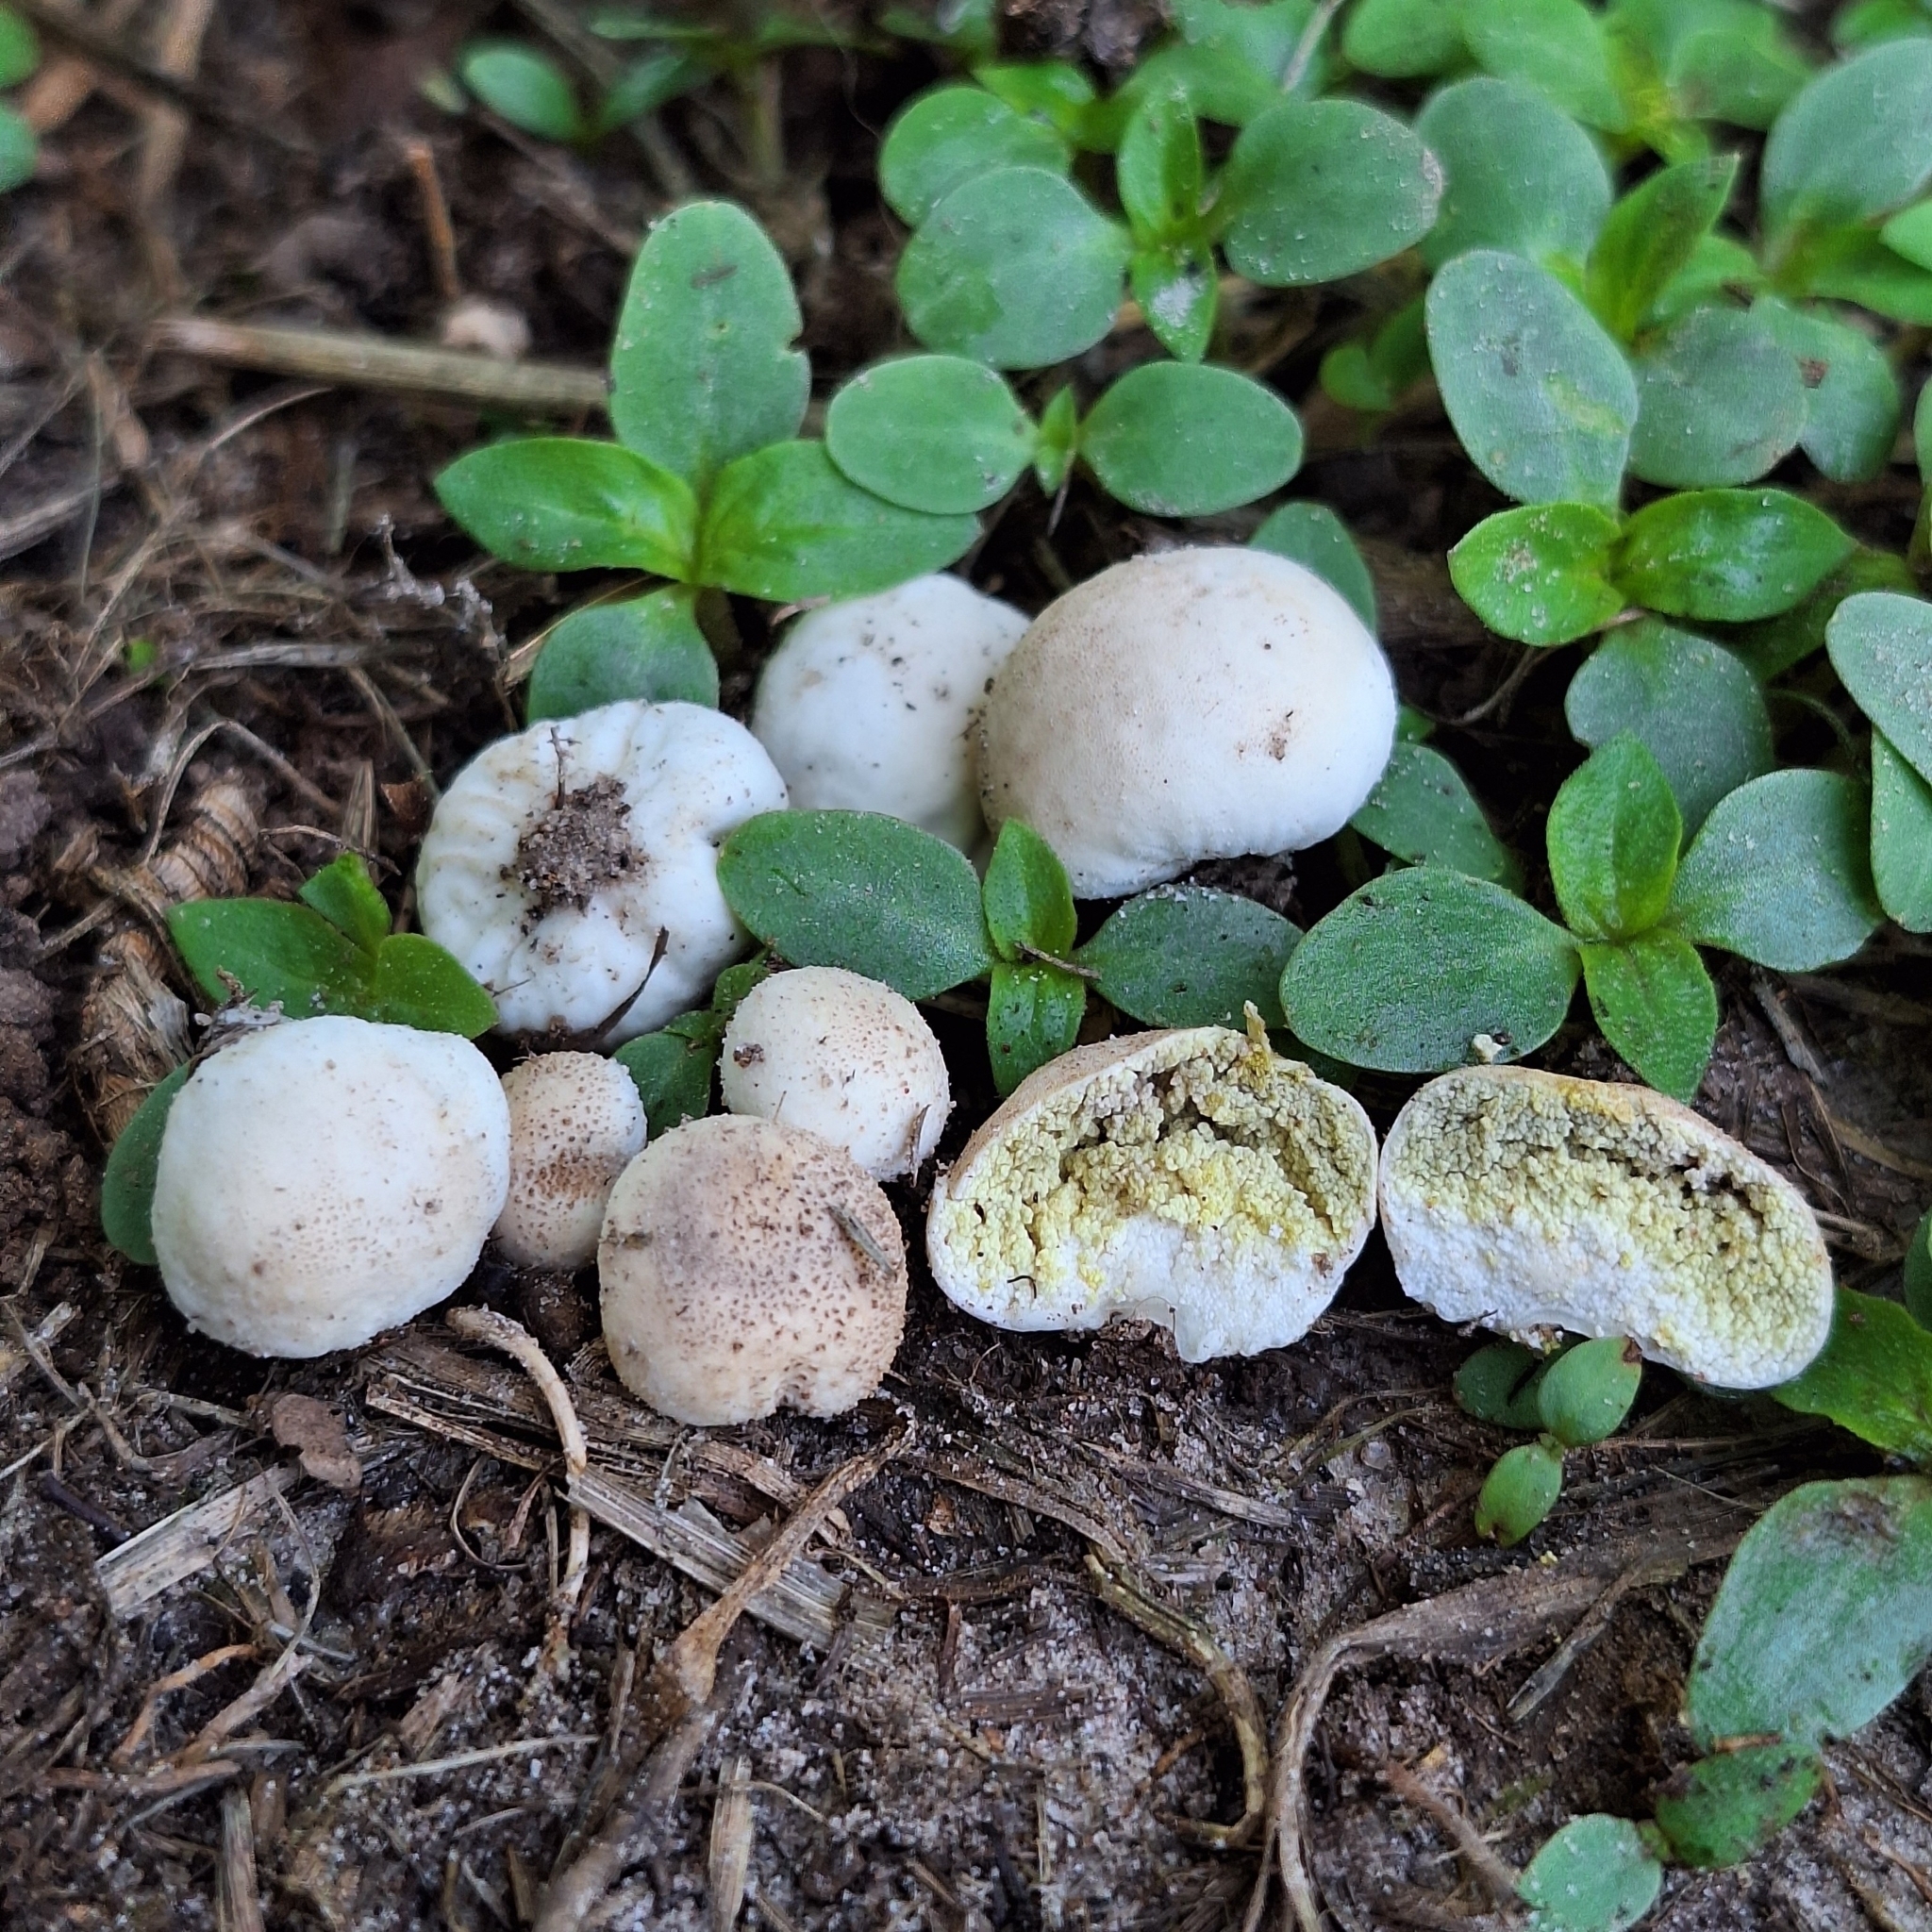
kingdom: Fungi
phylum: Basidiomycota
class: Agaricomycetes
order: Agaricales
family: Agaricaceae
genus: Arachnion
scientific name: Arachnion album
